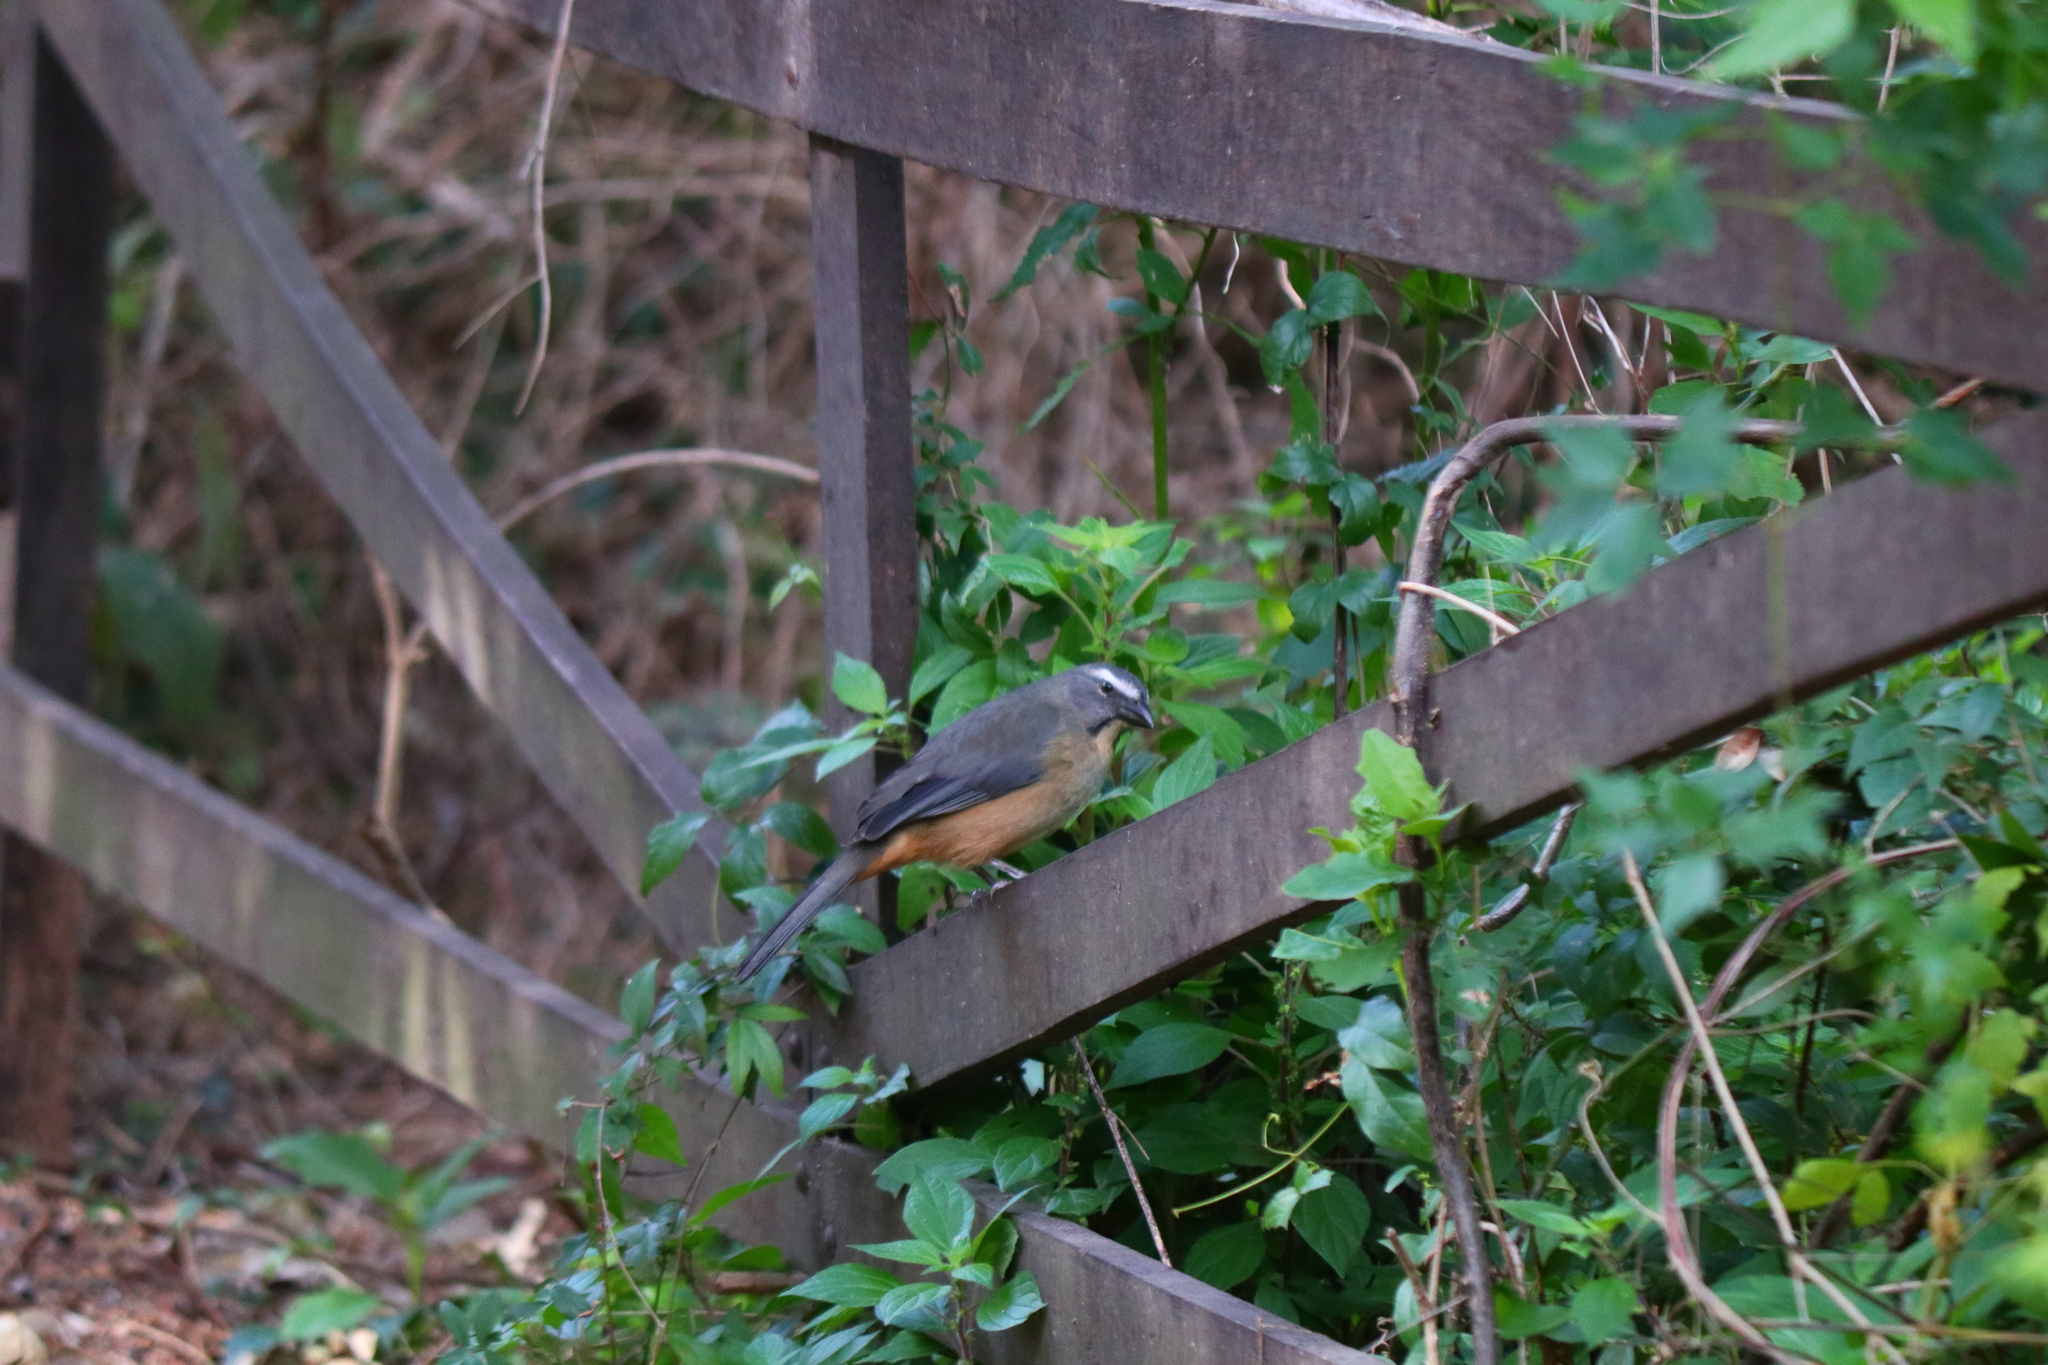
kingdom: Animalia
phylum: Chordata
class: Aves
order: Passeriformes
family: Thraupidae
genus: Saltator
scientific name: Saltator coerulescens
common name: Grayish saltator
